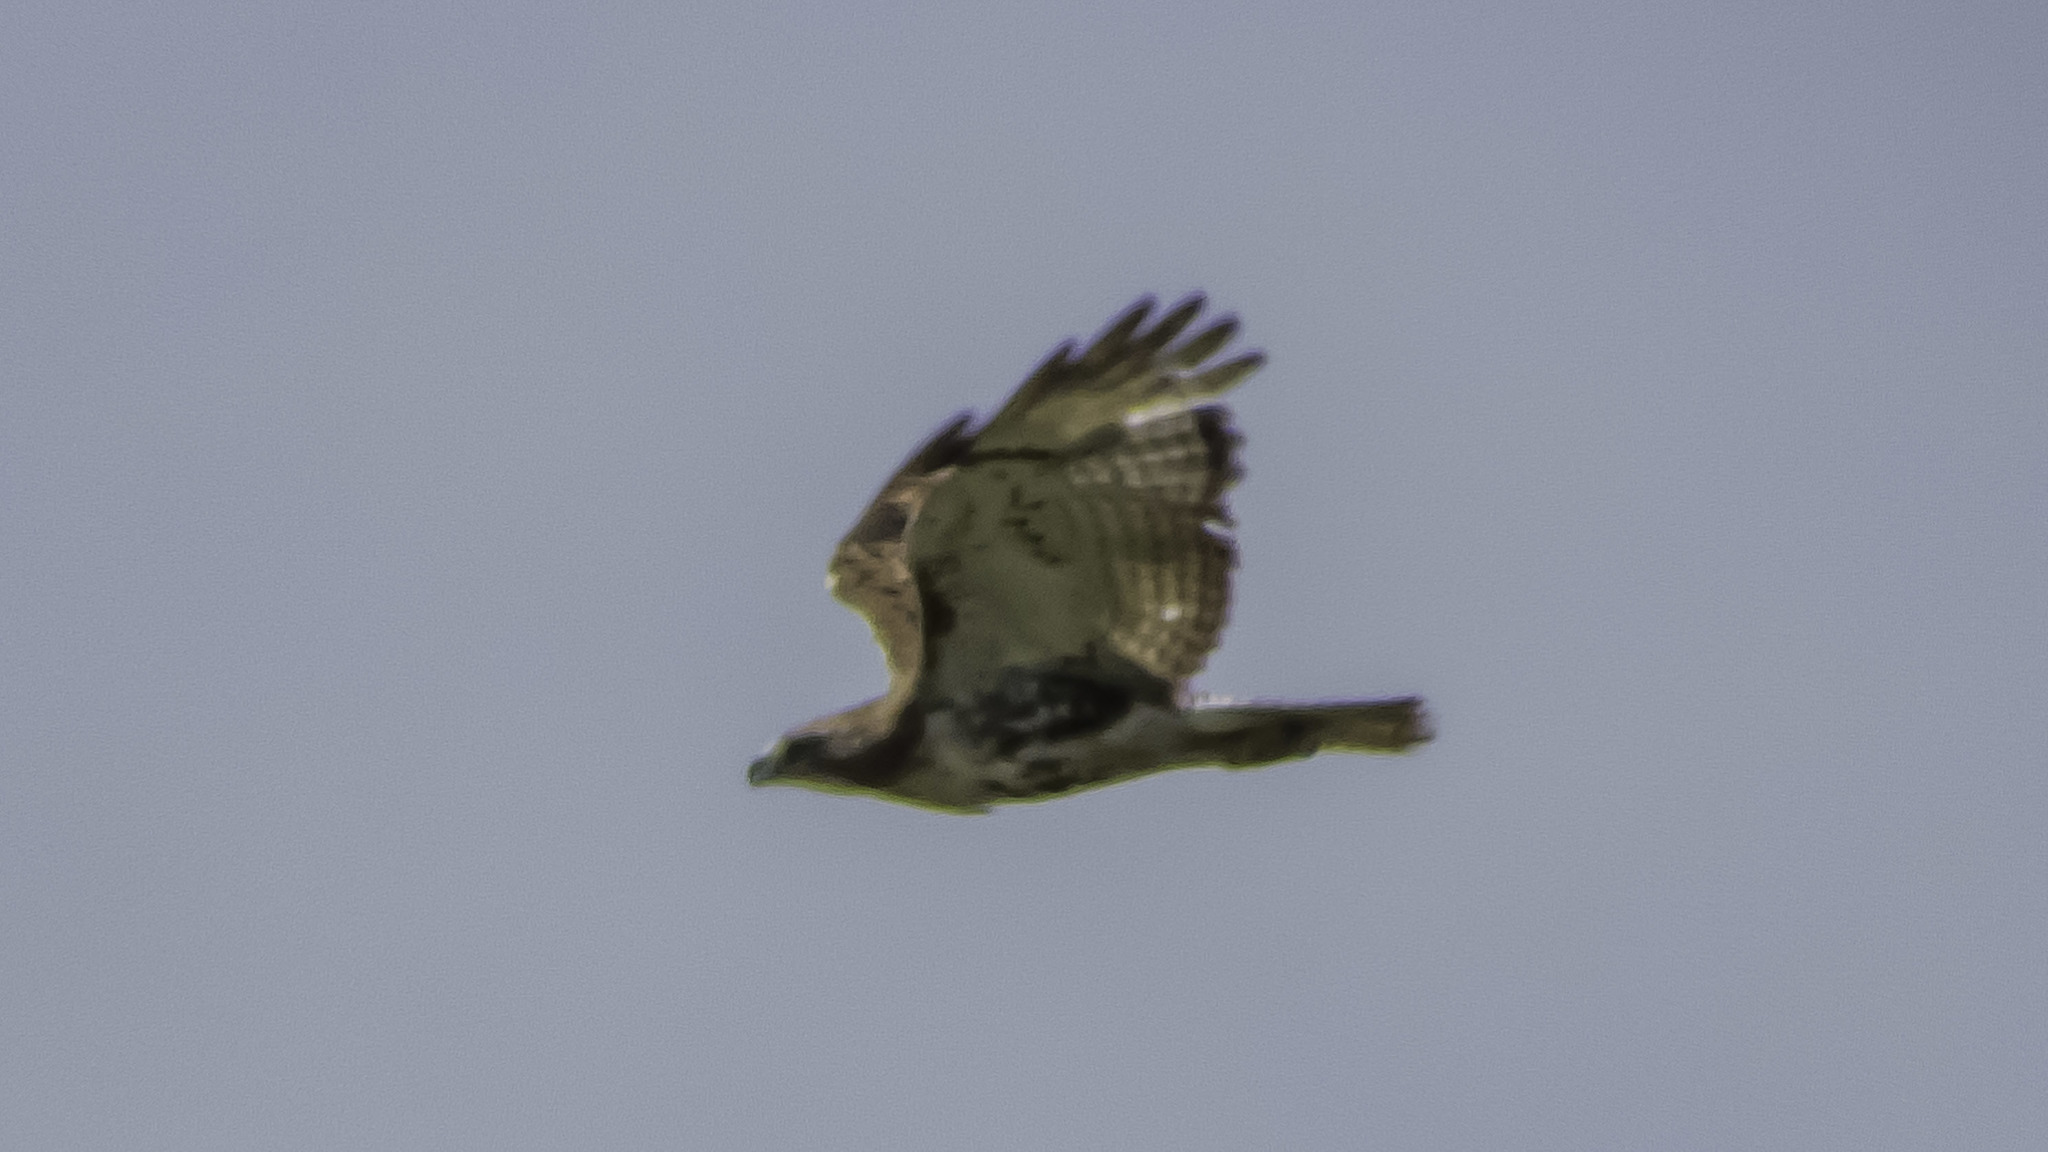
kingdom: Animalia
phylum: Chordata
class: Aves
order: Accipitriformes
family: Accipitridae
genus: Buteo
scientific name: Buteo jamaicensis
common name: Red-tailed hawk
